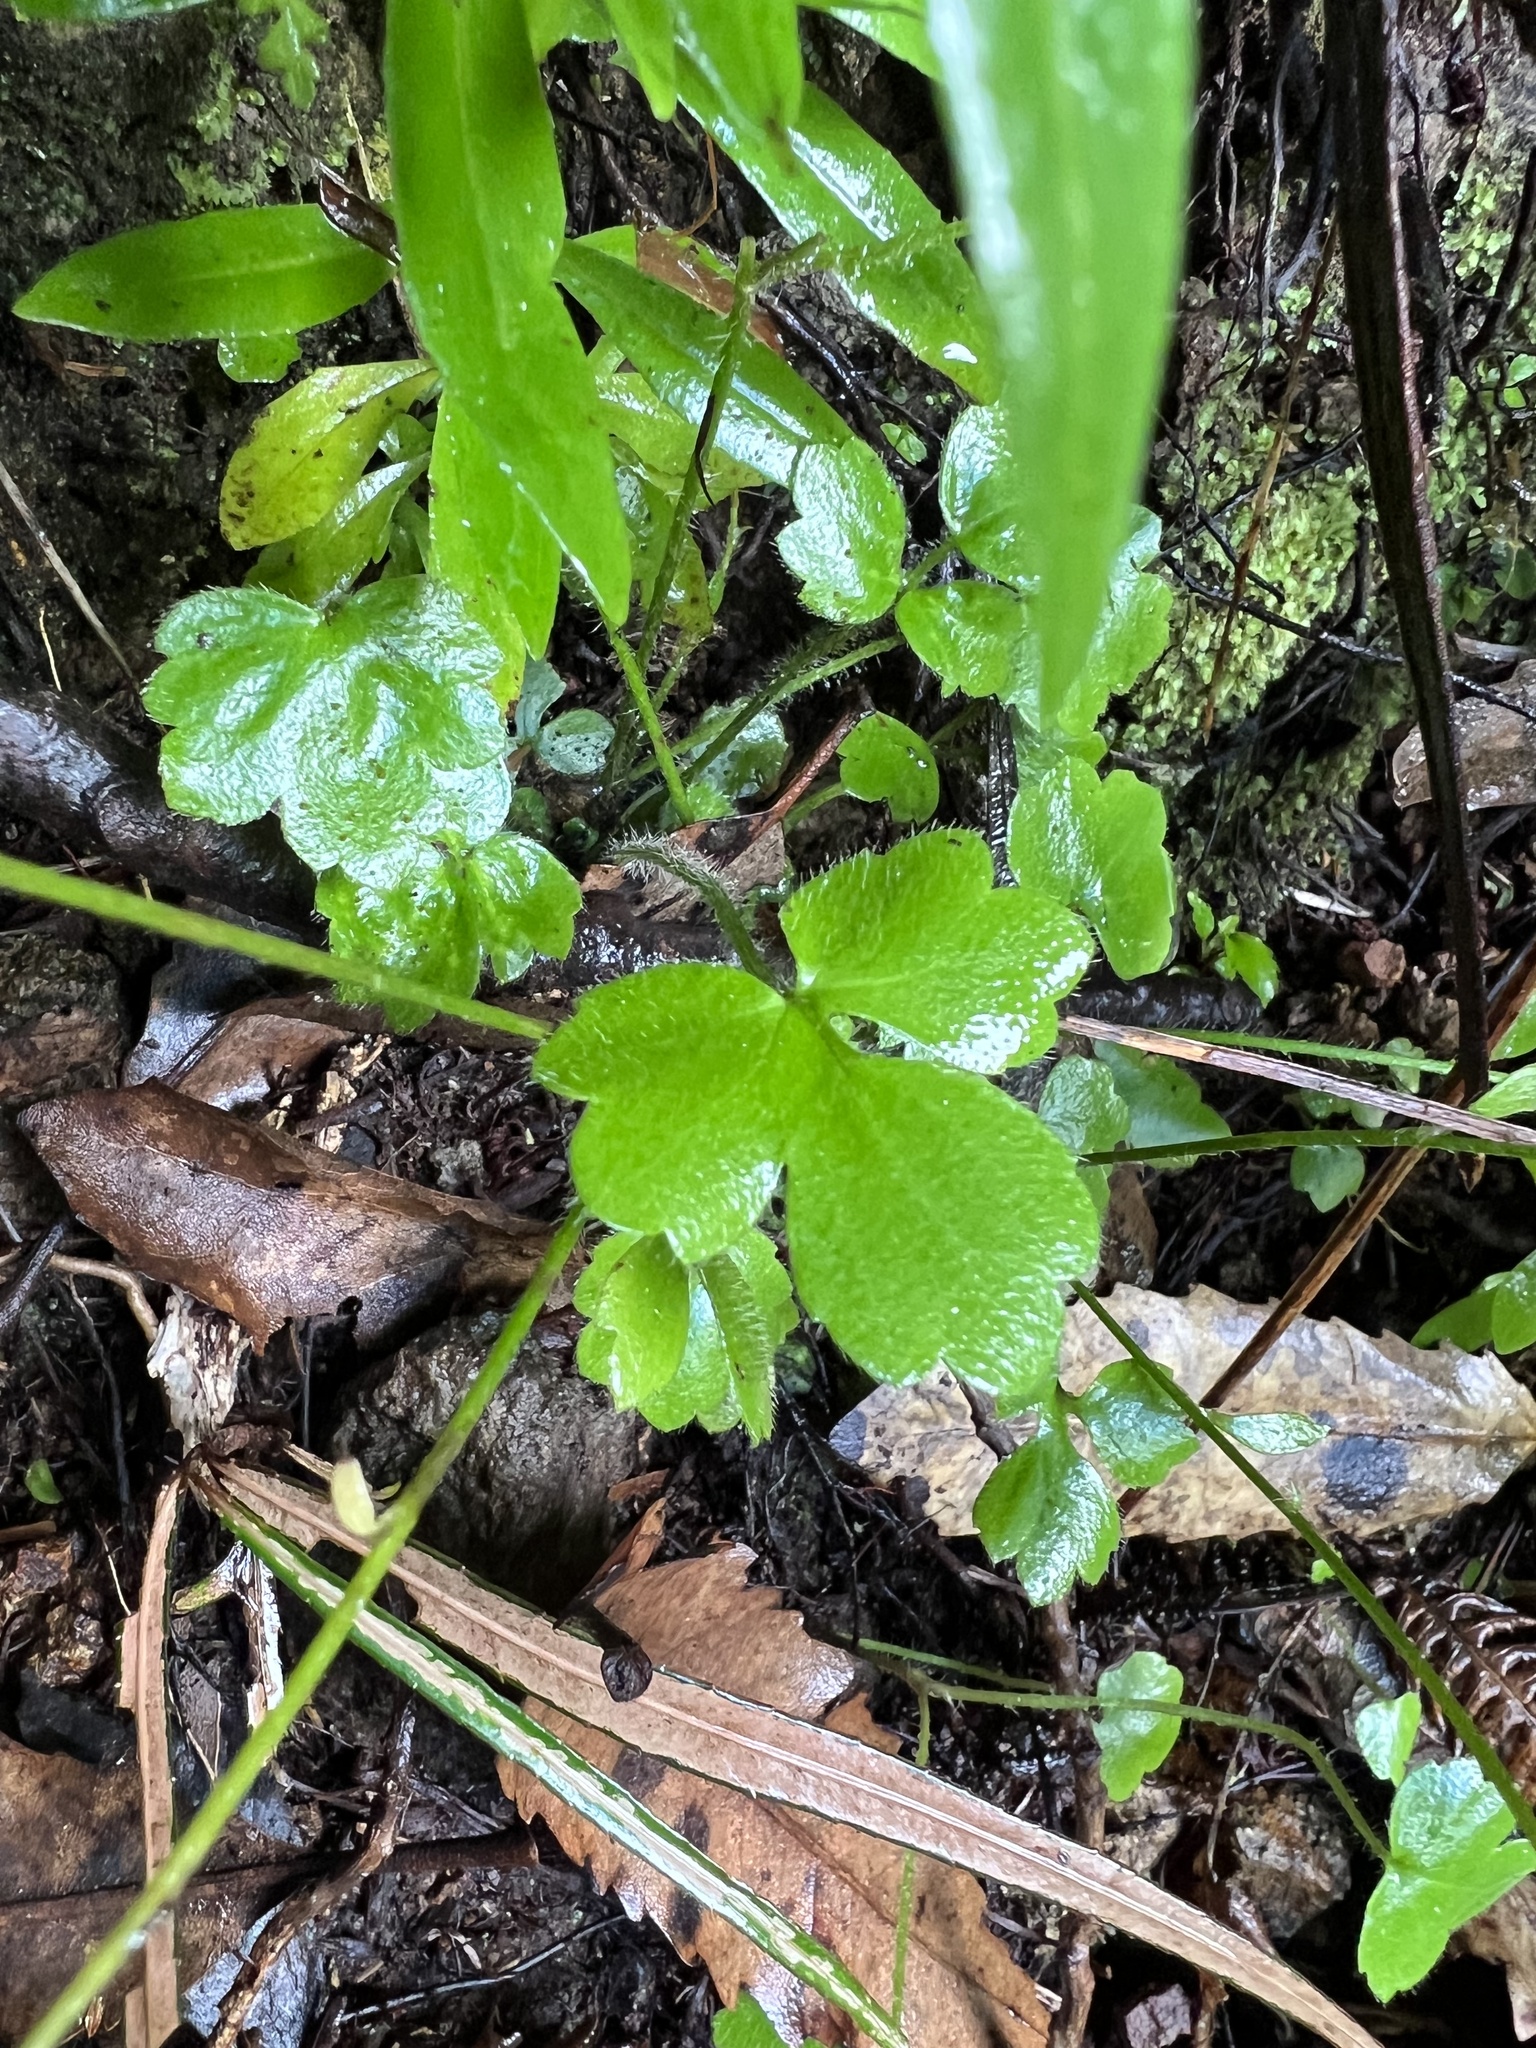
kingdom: Plantae
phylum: Tracheophyta
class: Magnoliopsida
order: Ranunculales
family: Ranunculaceae
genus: Ranunculus
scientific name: Ranunculus reflexus
